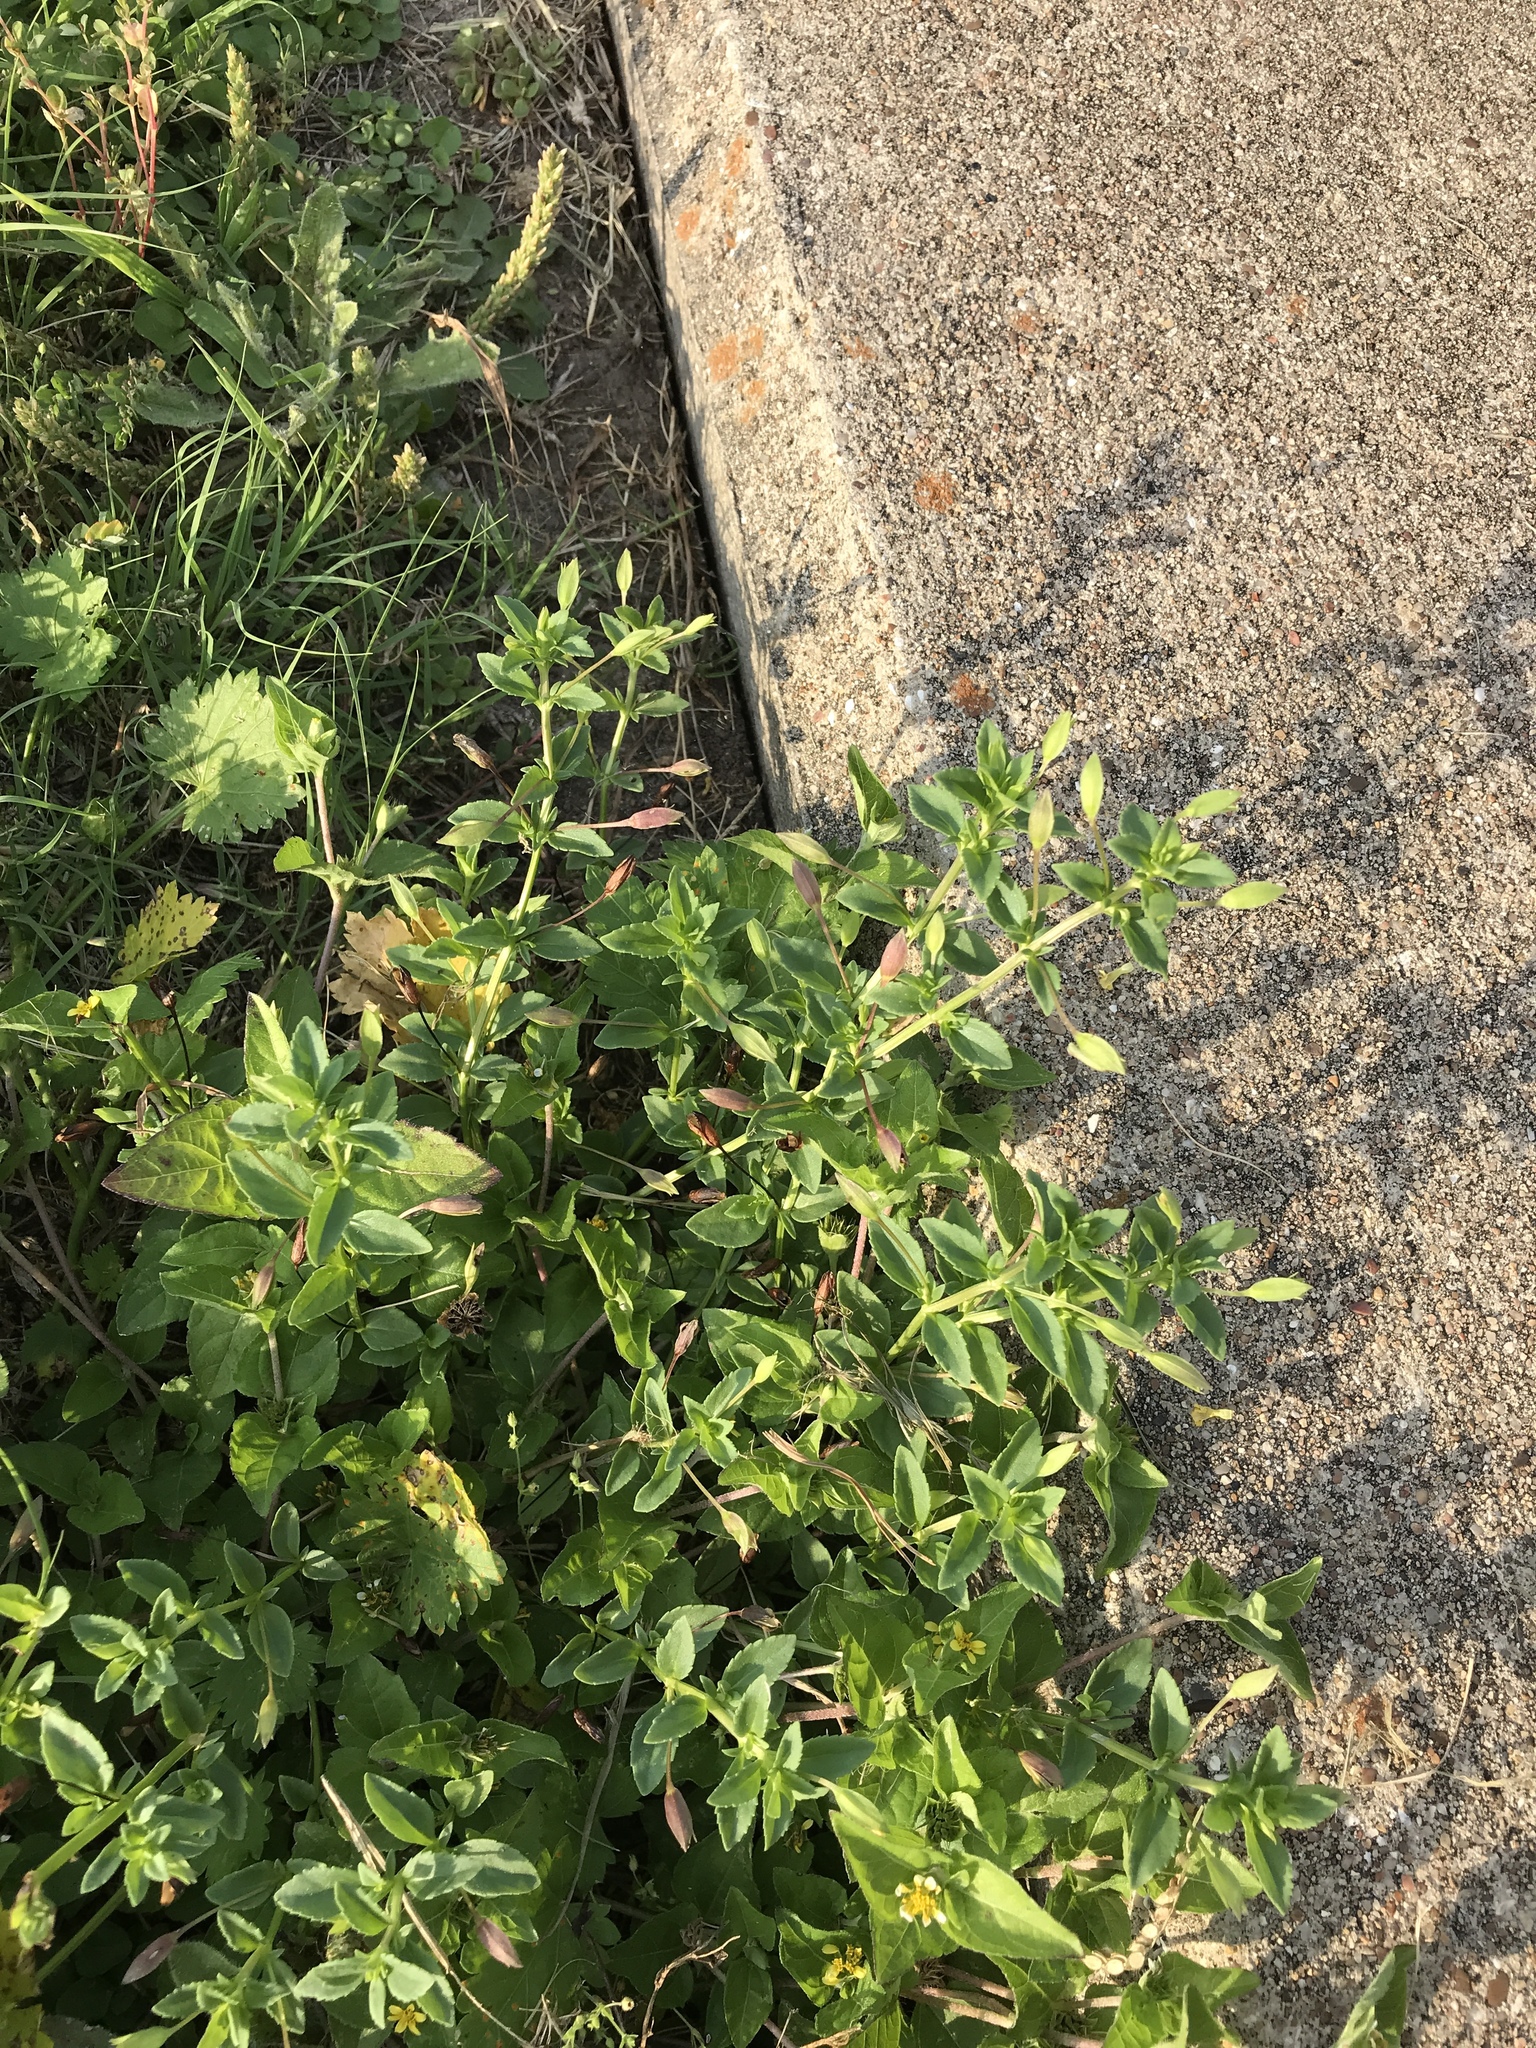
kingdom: Plantae
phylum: Tracheophyta
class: Magnoliopsida
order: Lamiales
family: Plantaginaceae
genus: Mecardonia
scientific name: Mecardonia procumbens
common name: Baby jump-up
